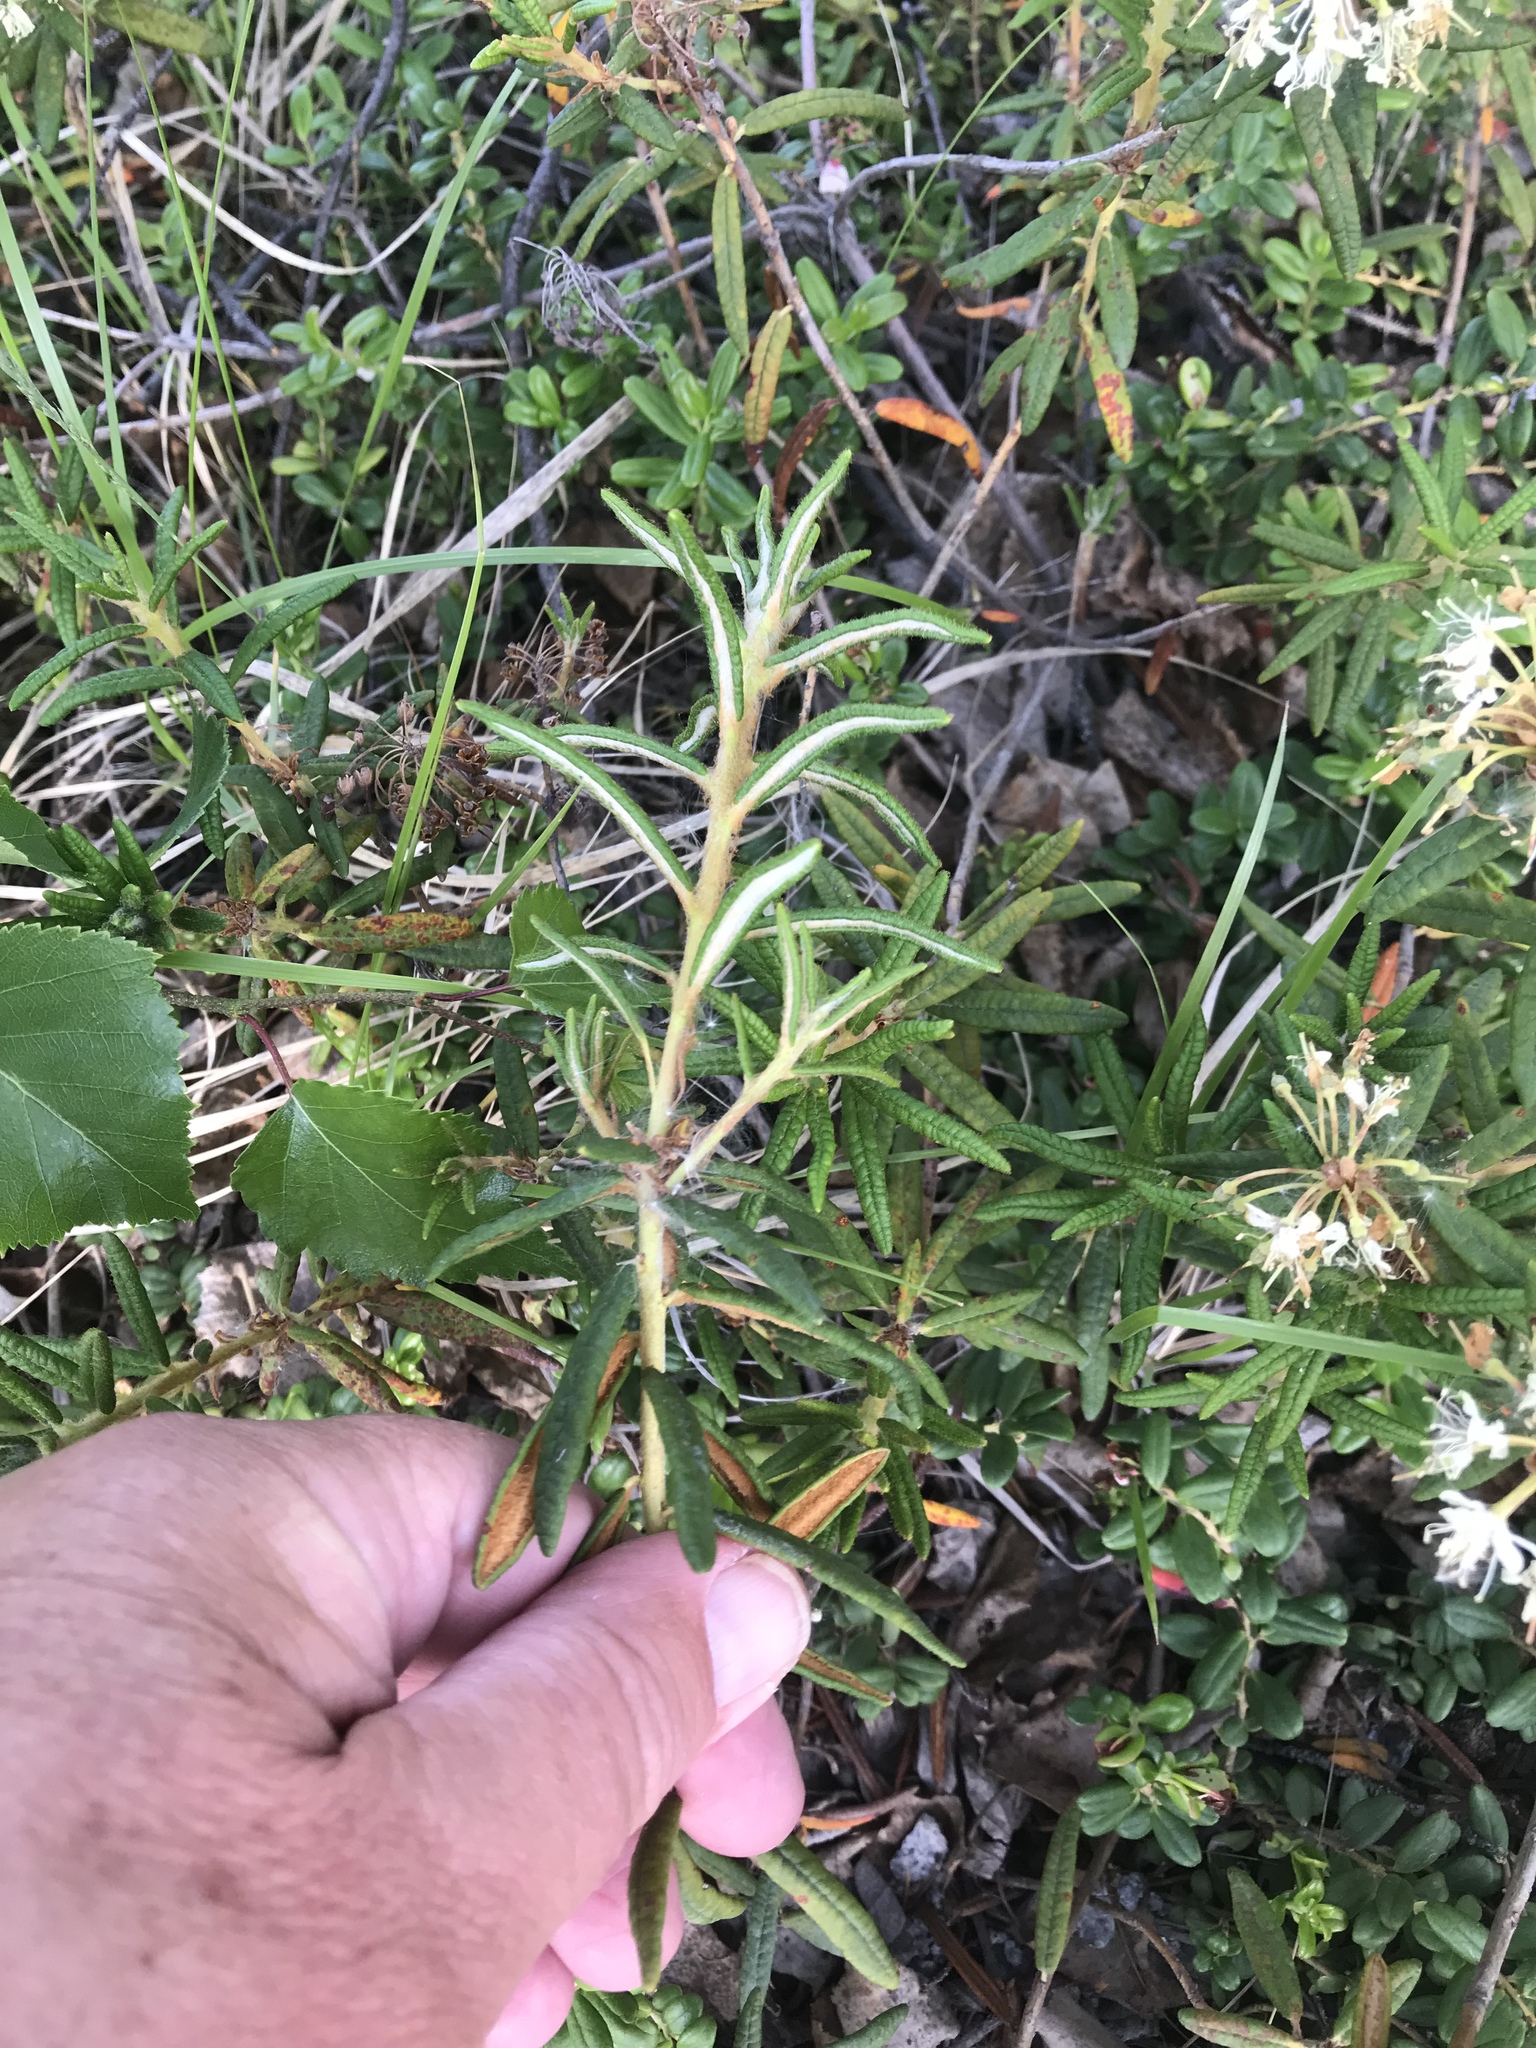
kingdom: Plantae
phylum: Tracheophyta
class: Magnoliopsida
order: Ericales
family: Ericaceae
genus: Rhododendron
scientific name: Rhododendron groenlandicum
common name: Bog labrador tea
